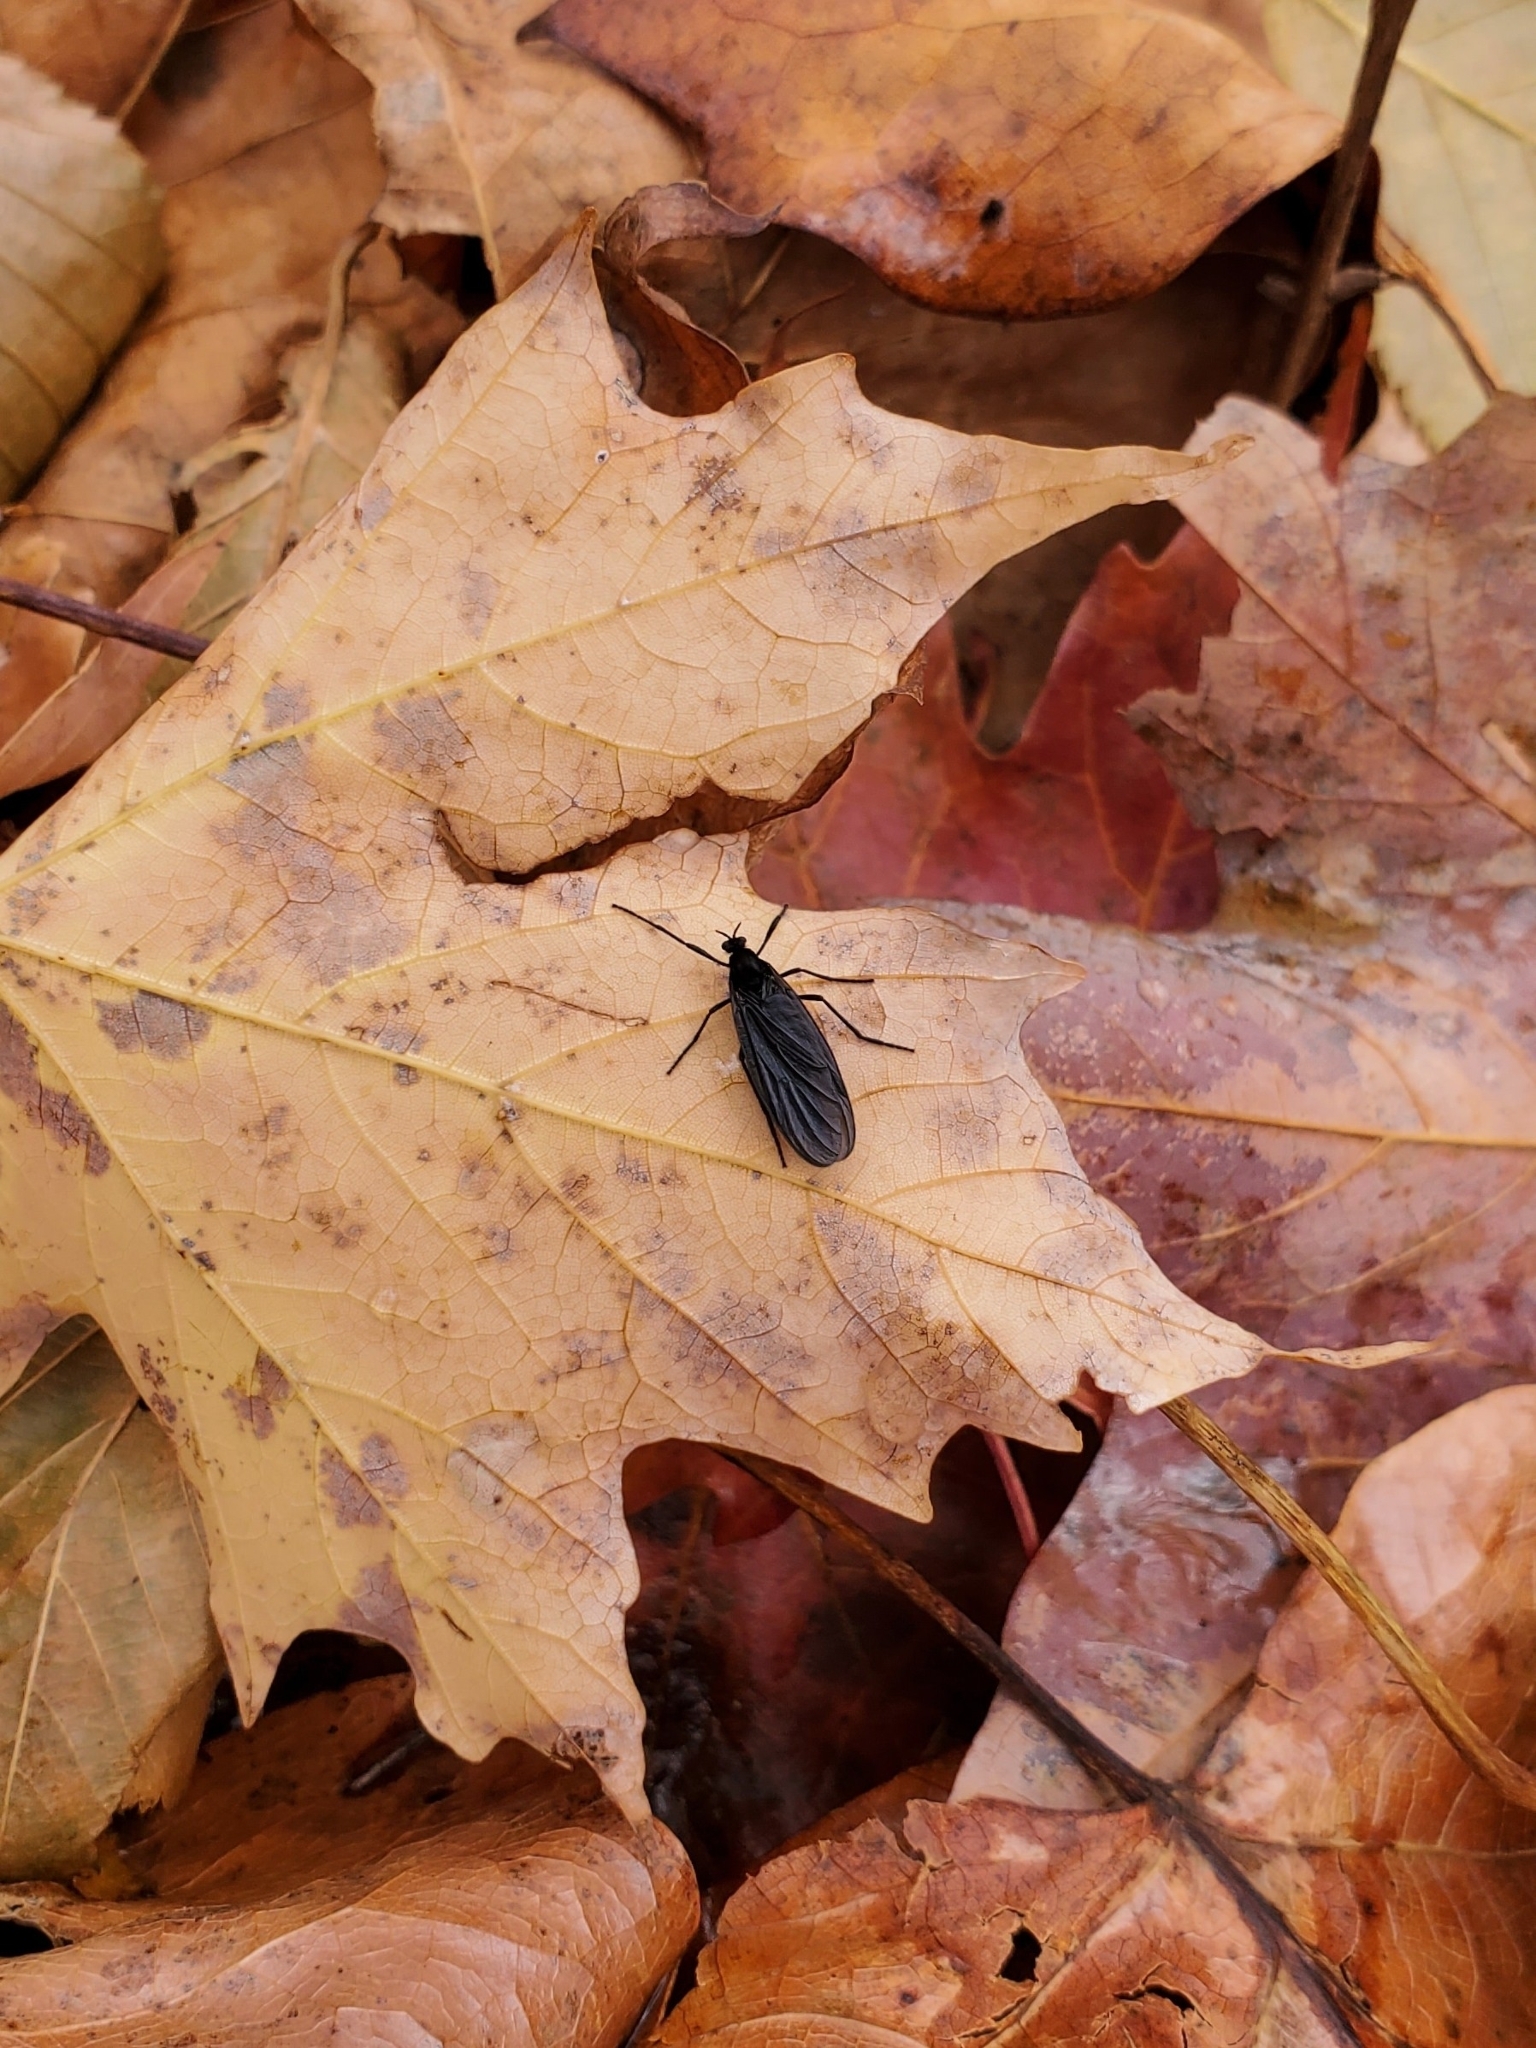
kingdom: Animalia
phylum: Arthropoda
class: Insecta
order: Diptera
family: Bibionidae
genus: Penthetria
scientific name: Penthetria heteroptera
